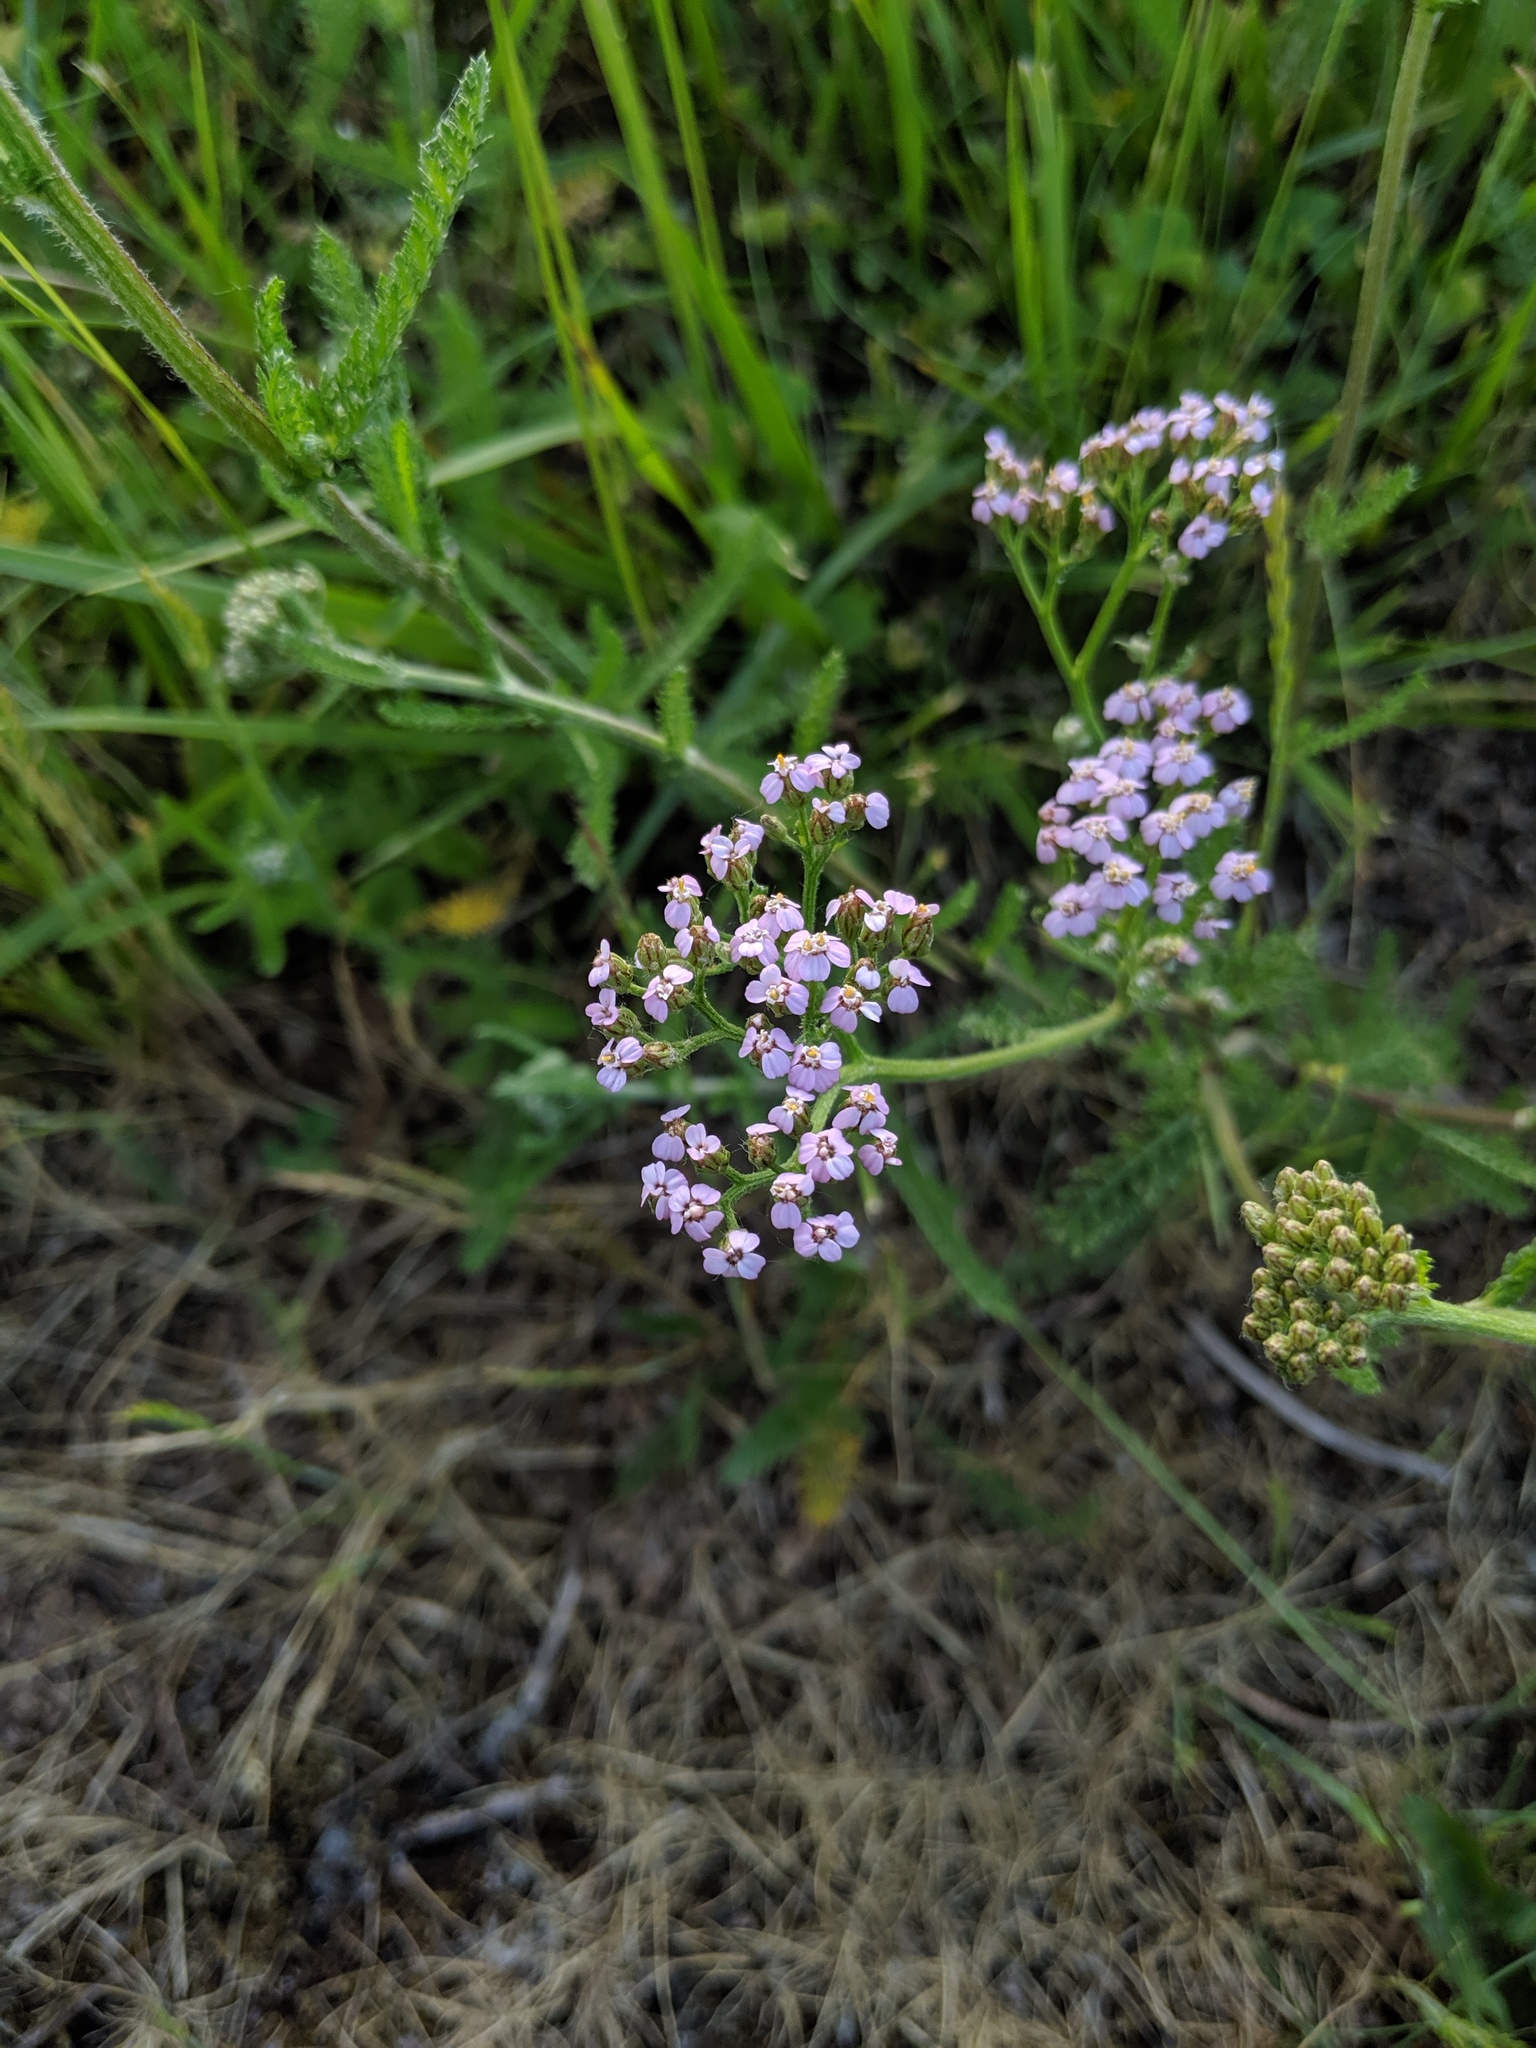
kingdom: Plantae
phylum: Tracheophyta
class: Magnoliopsida
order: Asterales
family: Asteraceae
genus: Achillea
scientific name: Achillea millefolium
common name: Yarrow
